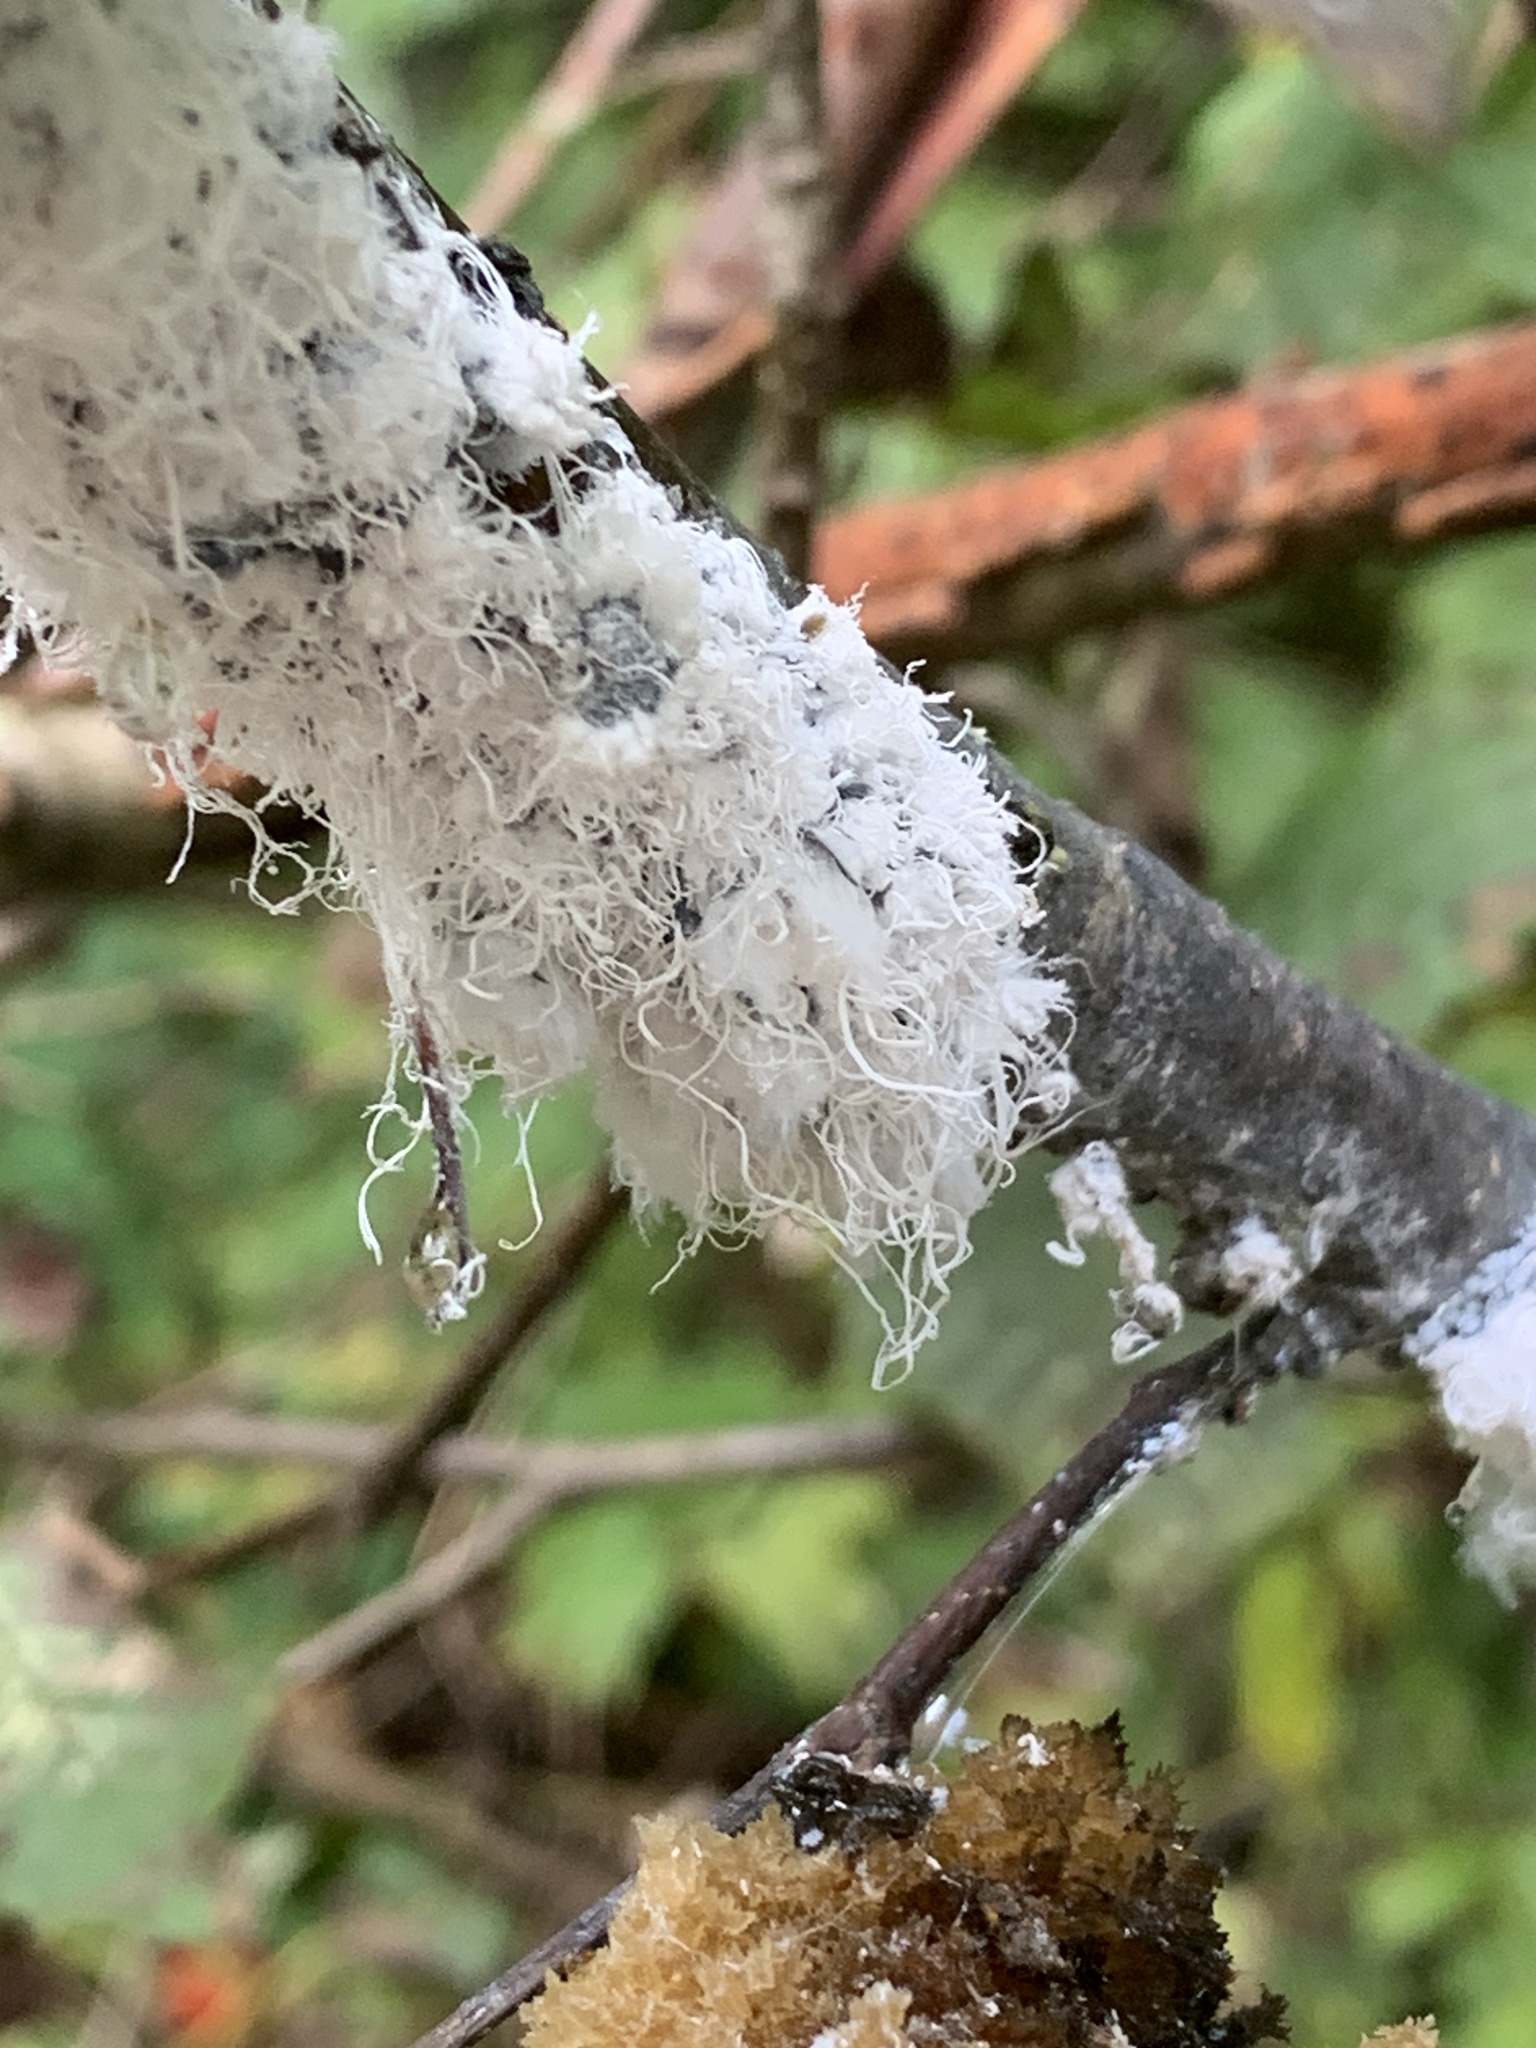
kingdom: Animalia
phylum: Arthropoda
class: Insecta
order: Hemiptera
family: Aphididae
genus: Prociphilus
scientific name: Prociphilus tessellatus
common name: Woolly alder aphid
